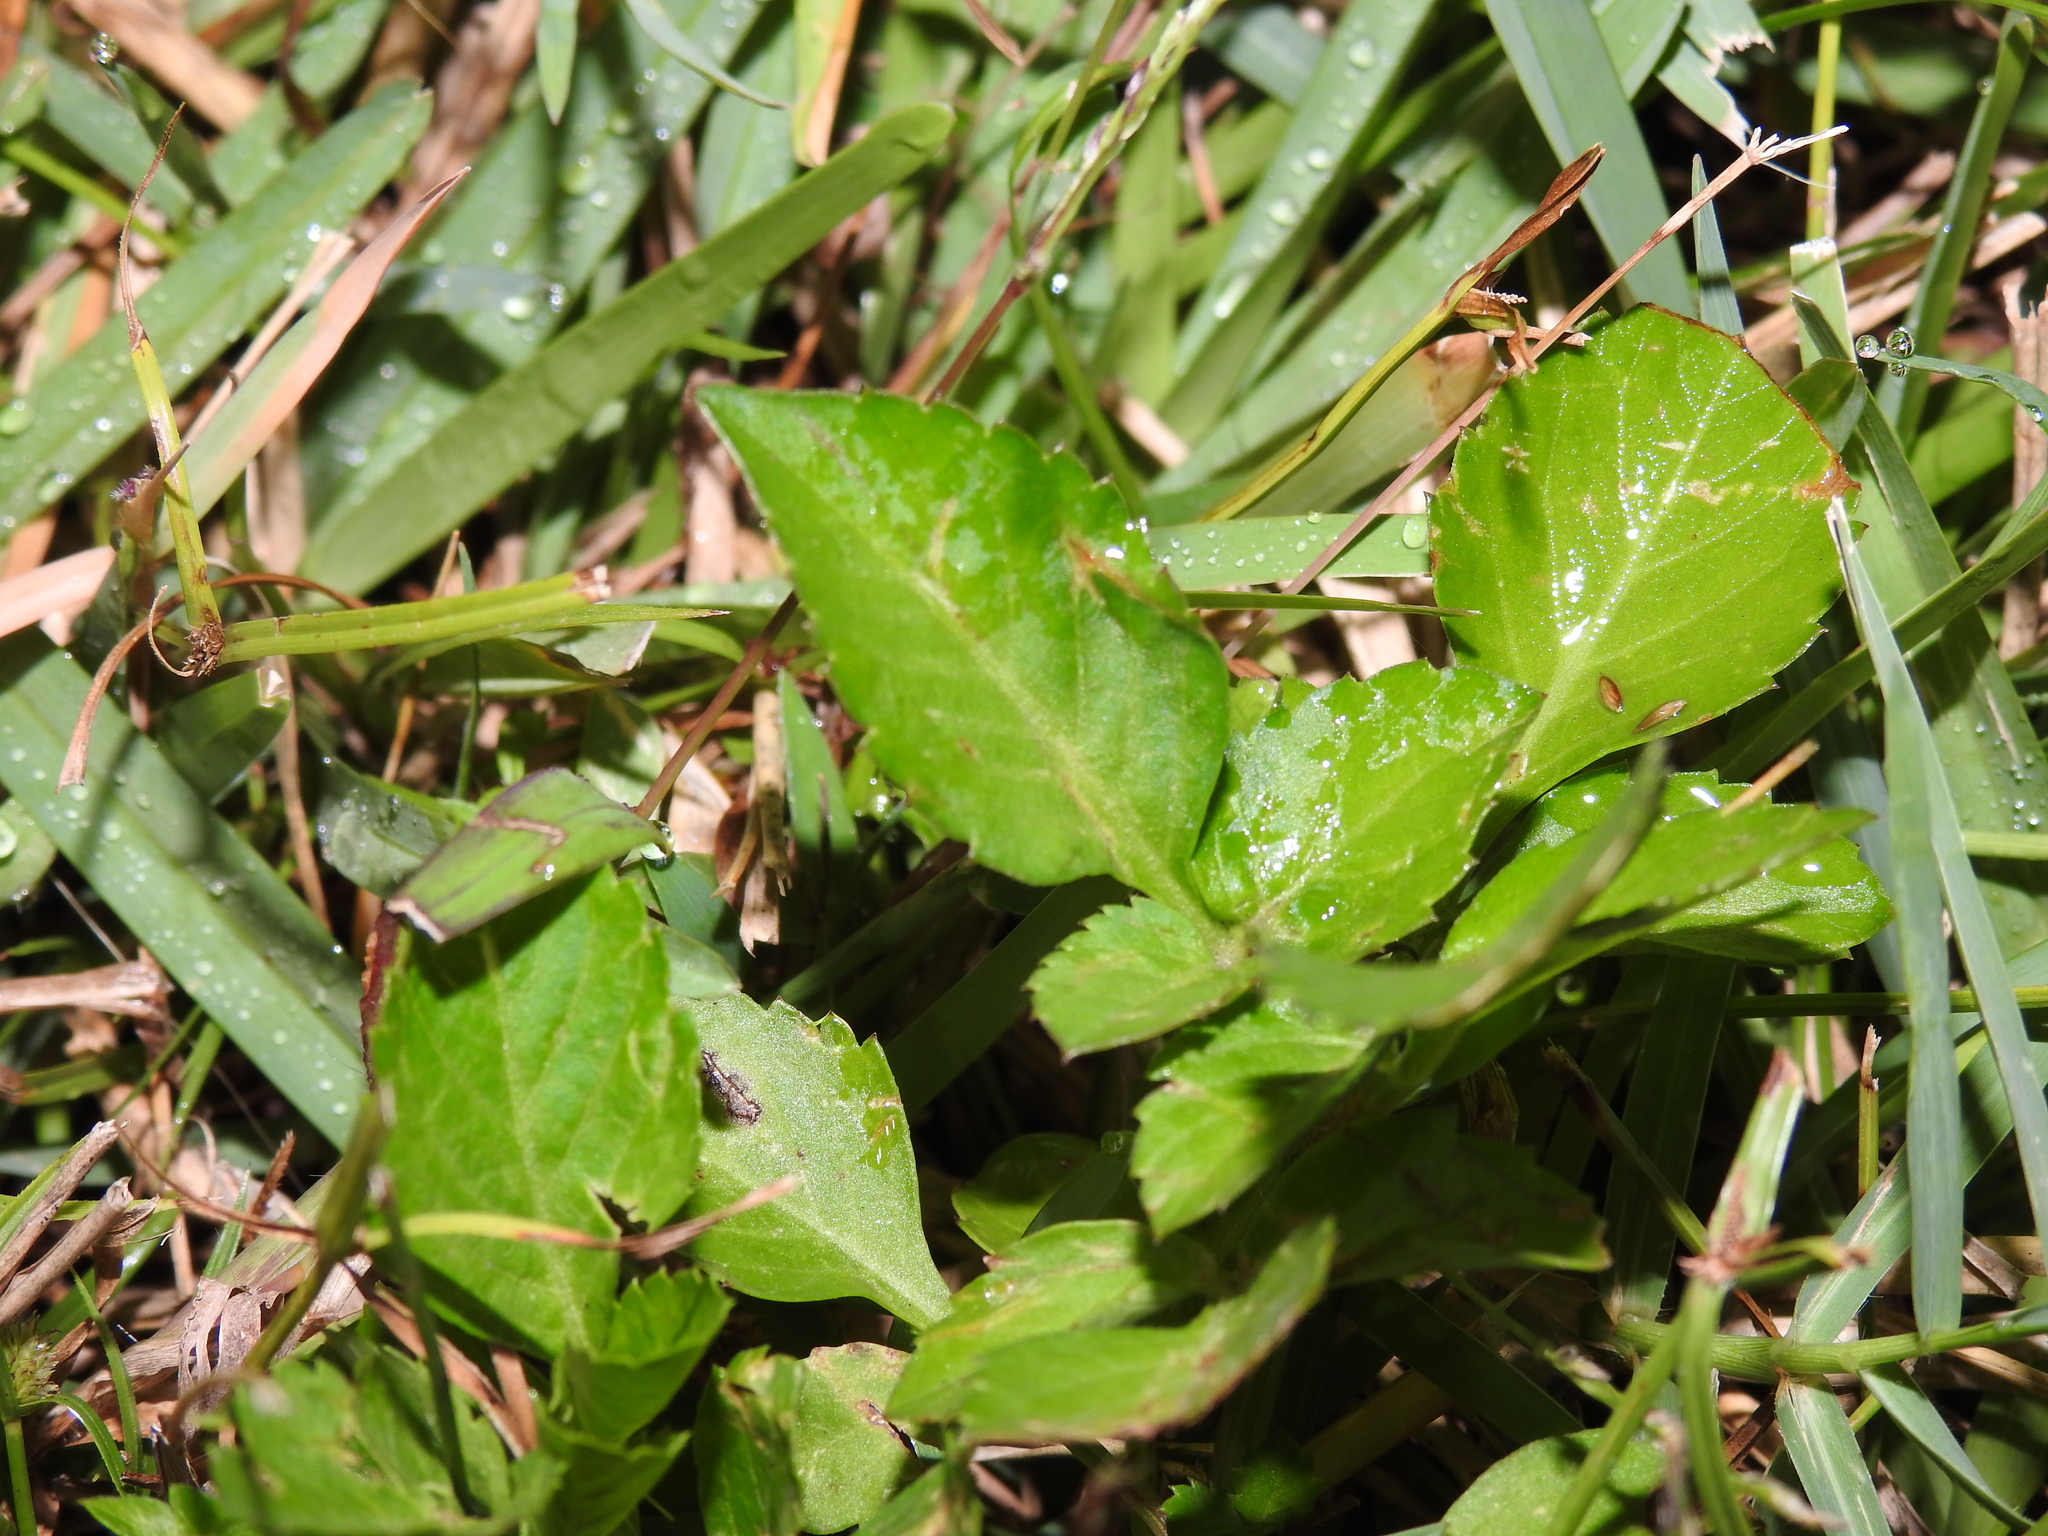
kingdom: Plantae
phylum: Tracheophyta
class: Magnoliopsida
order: Asterales
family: Asteraceae
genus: Bidens
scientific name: Bidens alba
